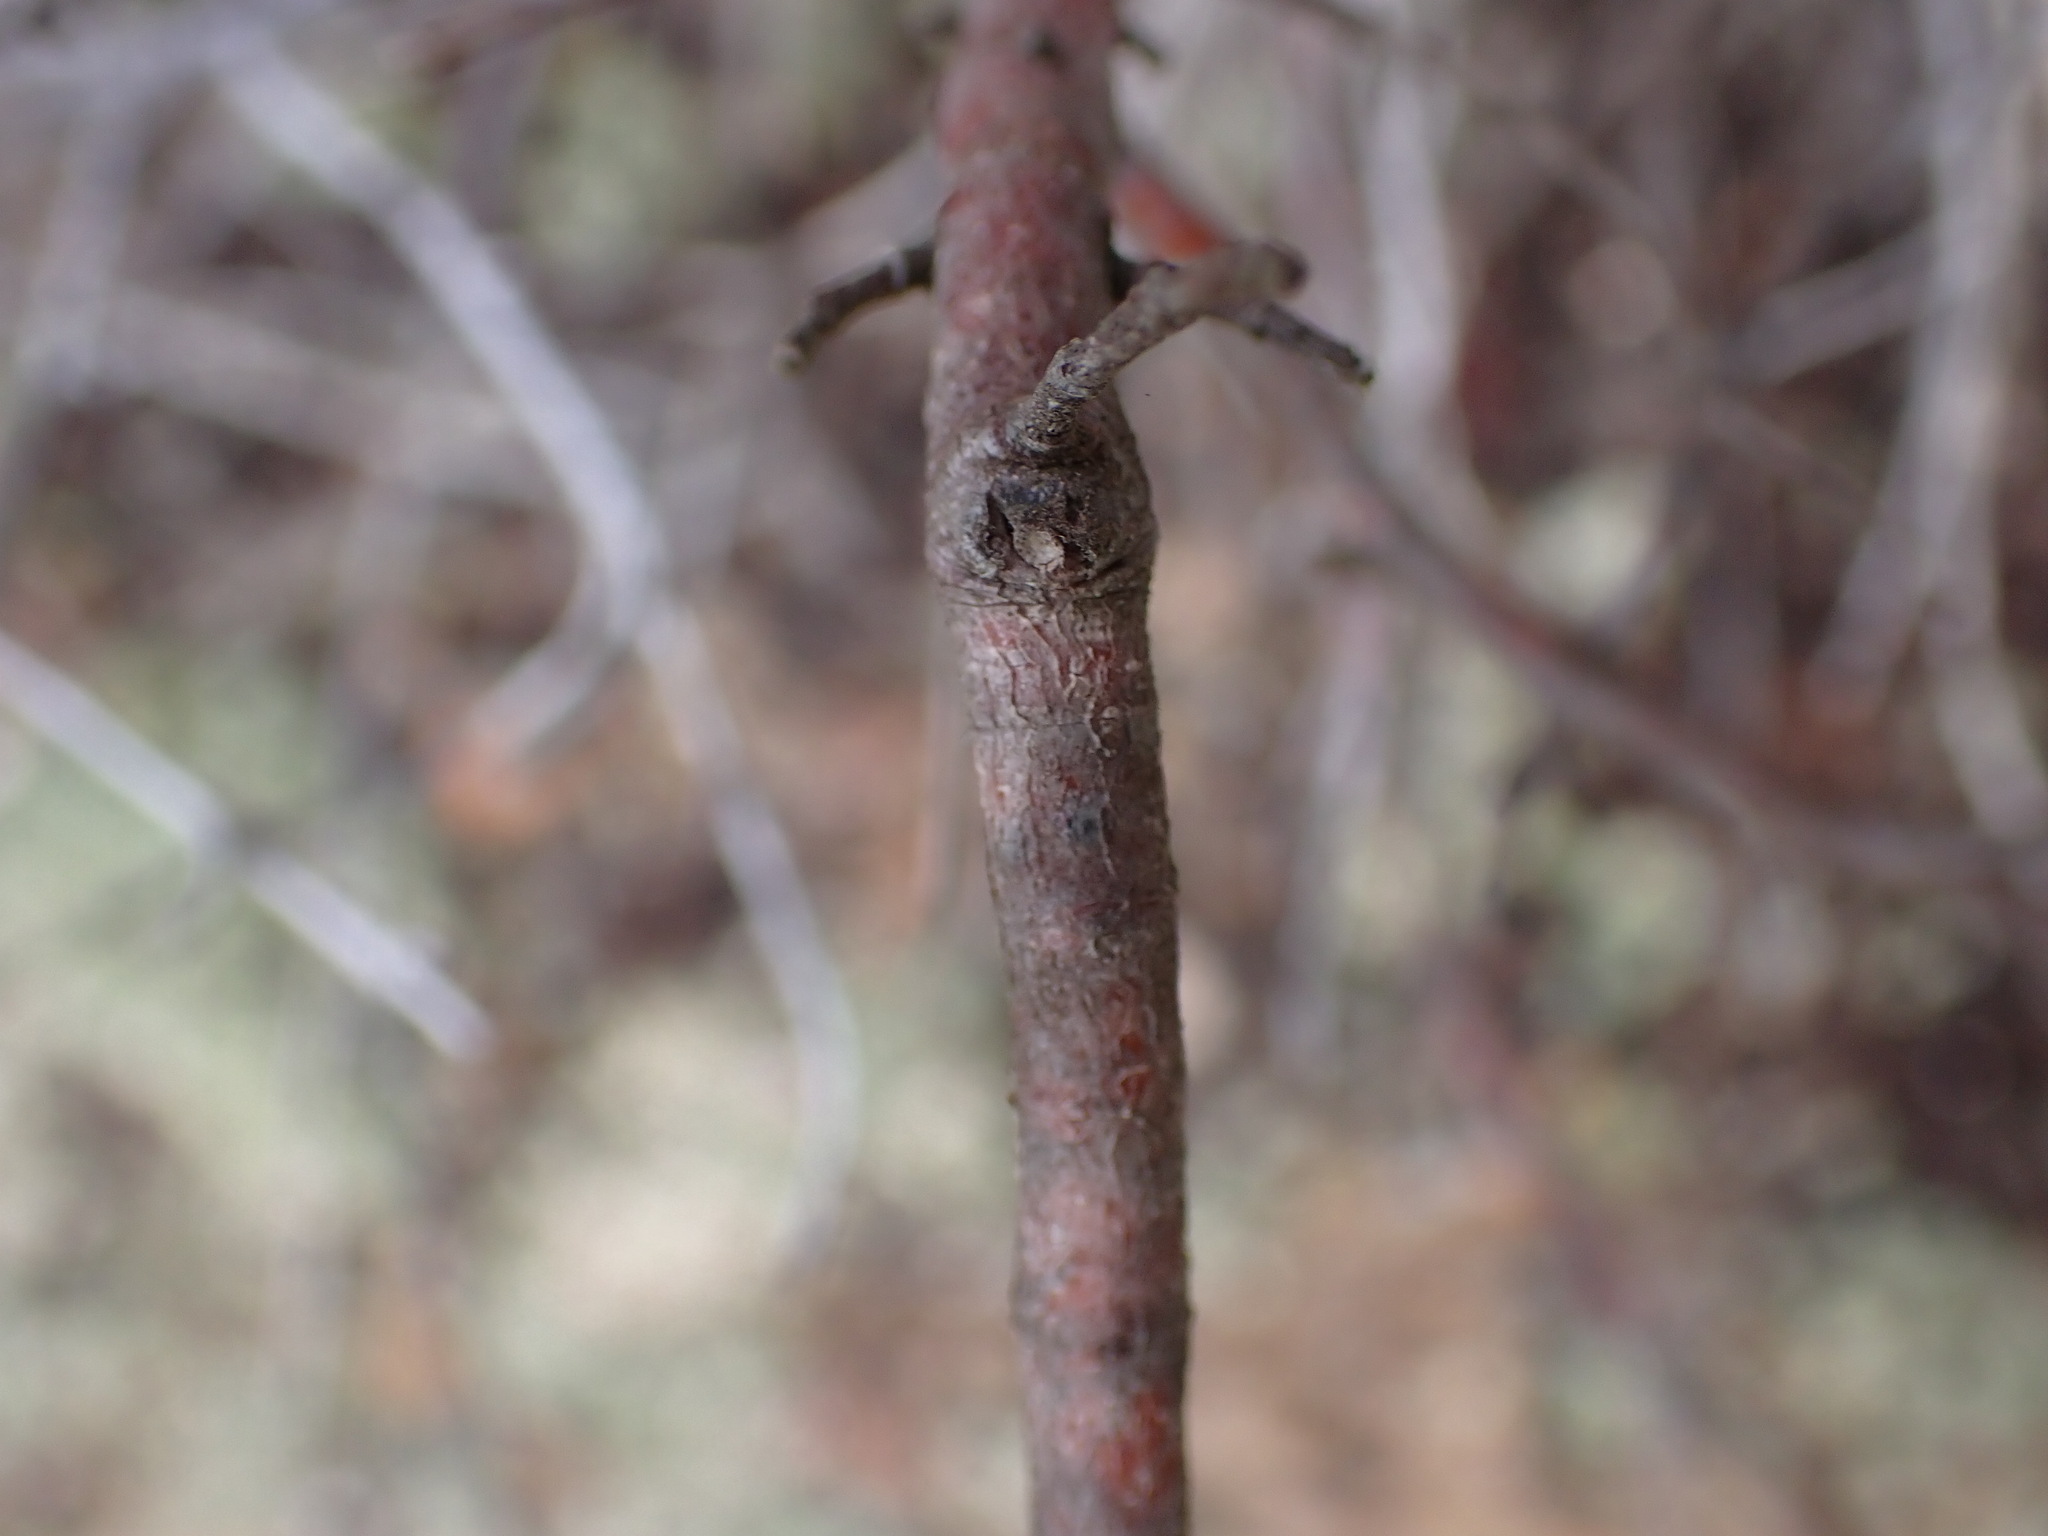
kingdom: Plantae
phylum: Tracheophyta
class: Magnoliopsida
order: Malvales
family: Cistaceae
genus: Cistus
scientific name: Cistus monspeliensis
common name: Montpelier cistus
